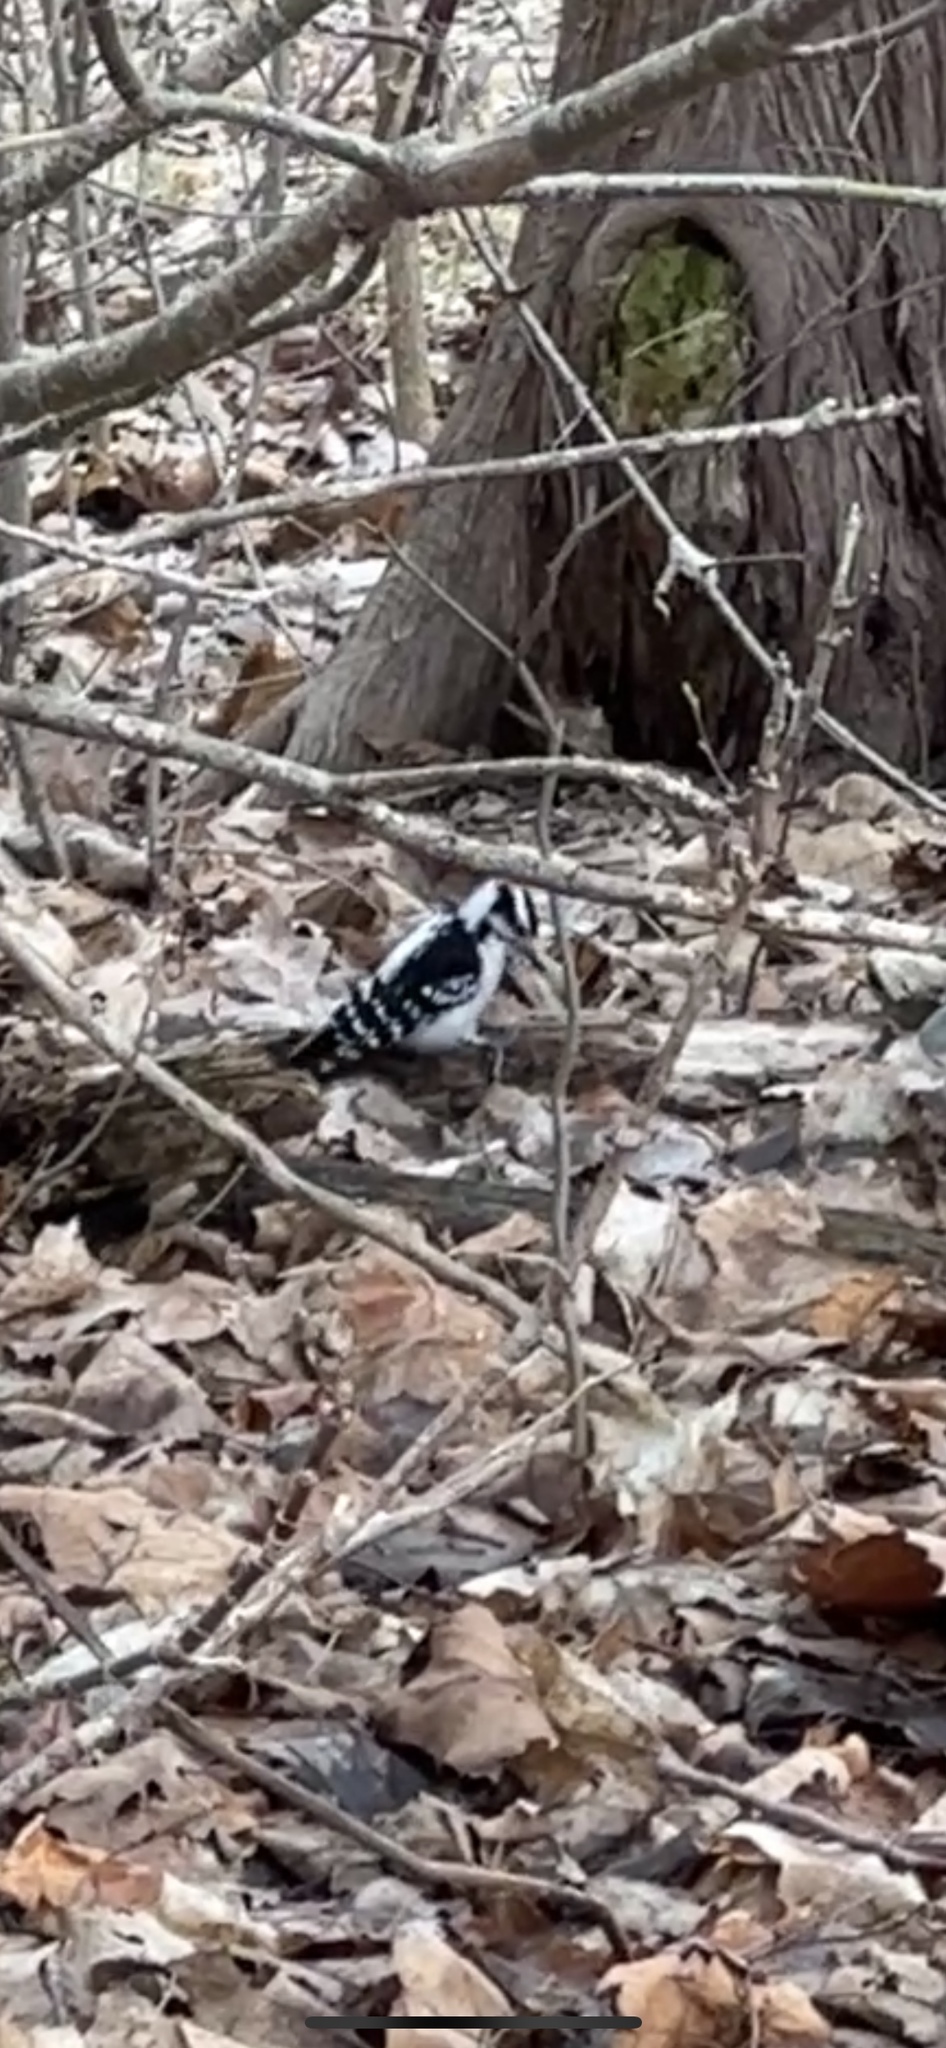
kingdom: Animalia
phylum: Chordata
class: Aves
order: Piciformes
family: Picidae
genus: Dryobates
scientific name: Dryobates pubescens
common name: Downy woodpecker
